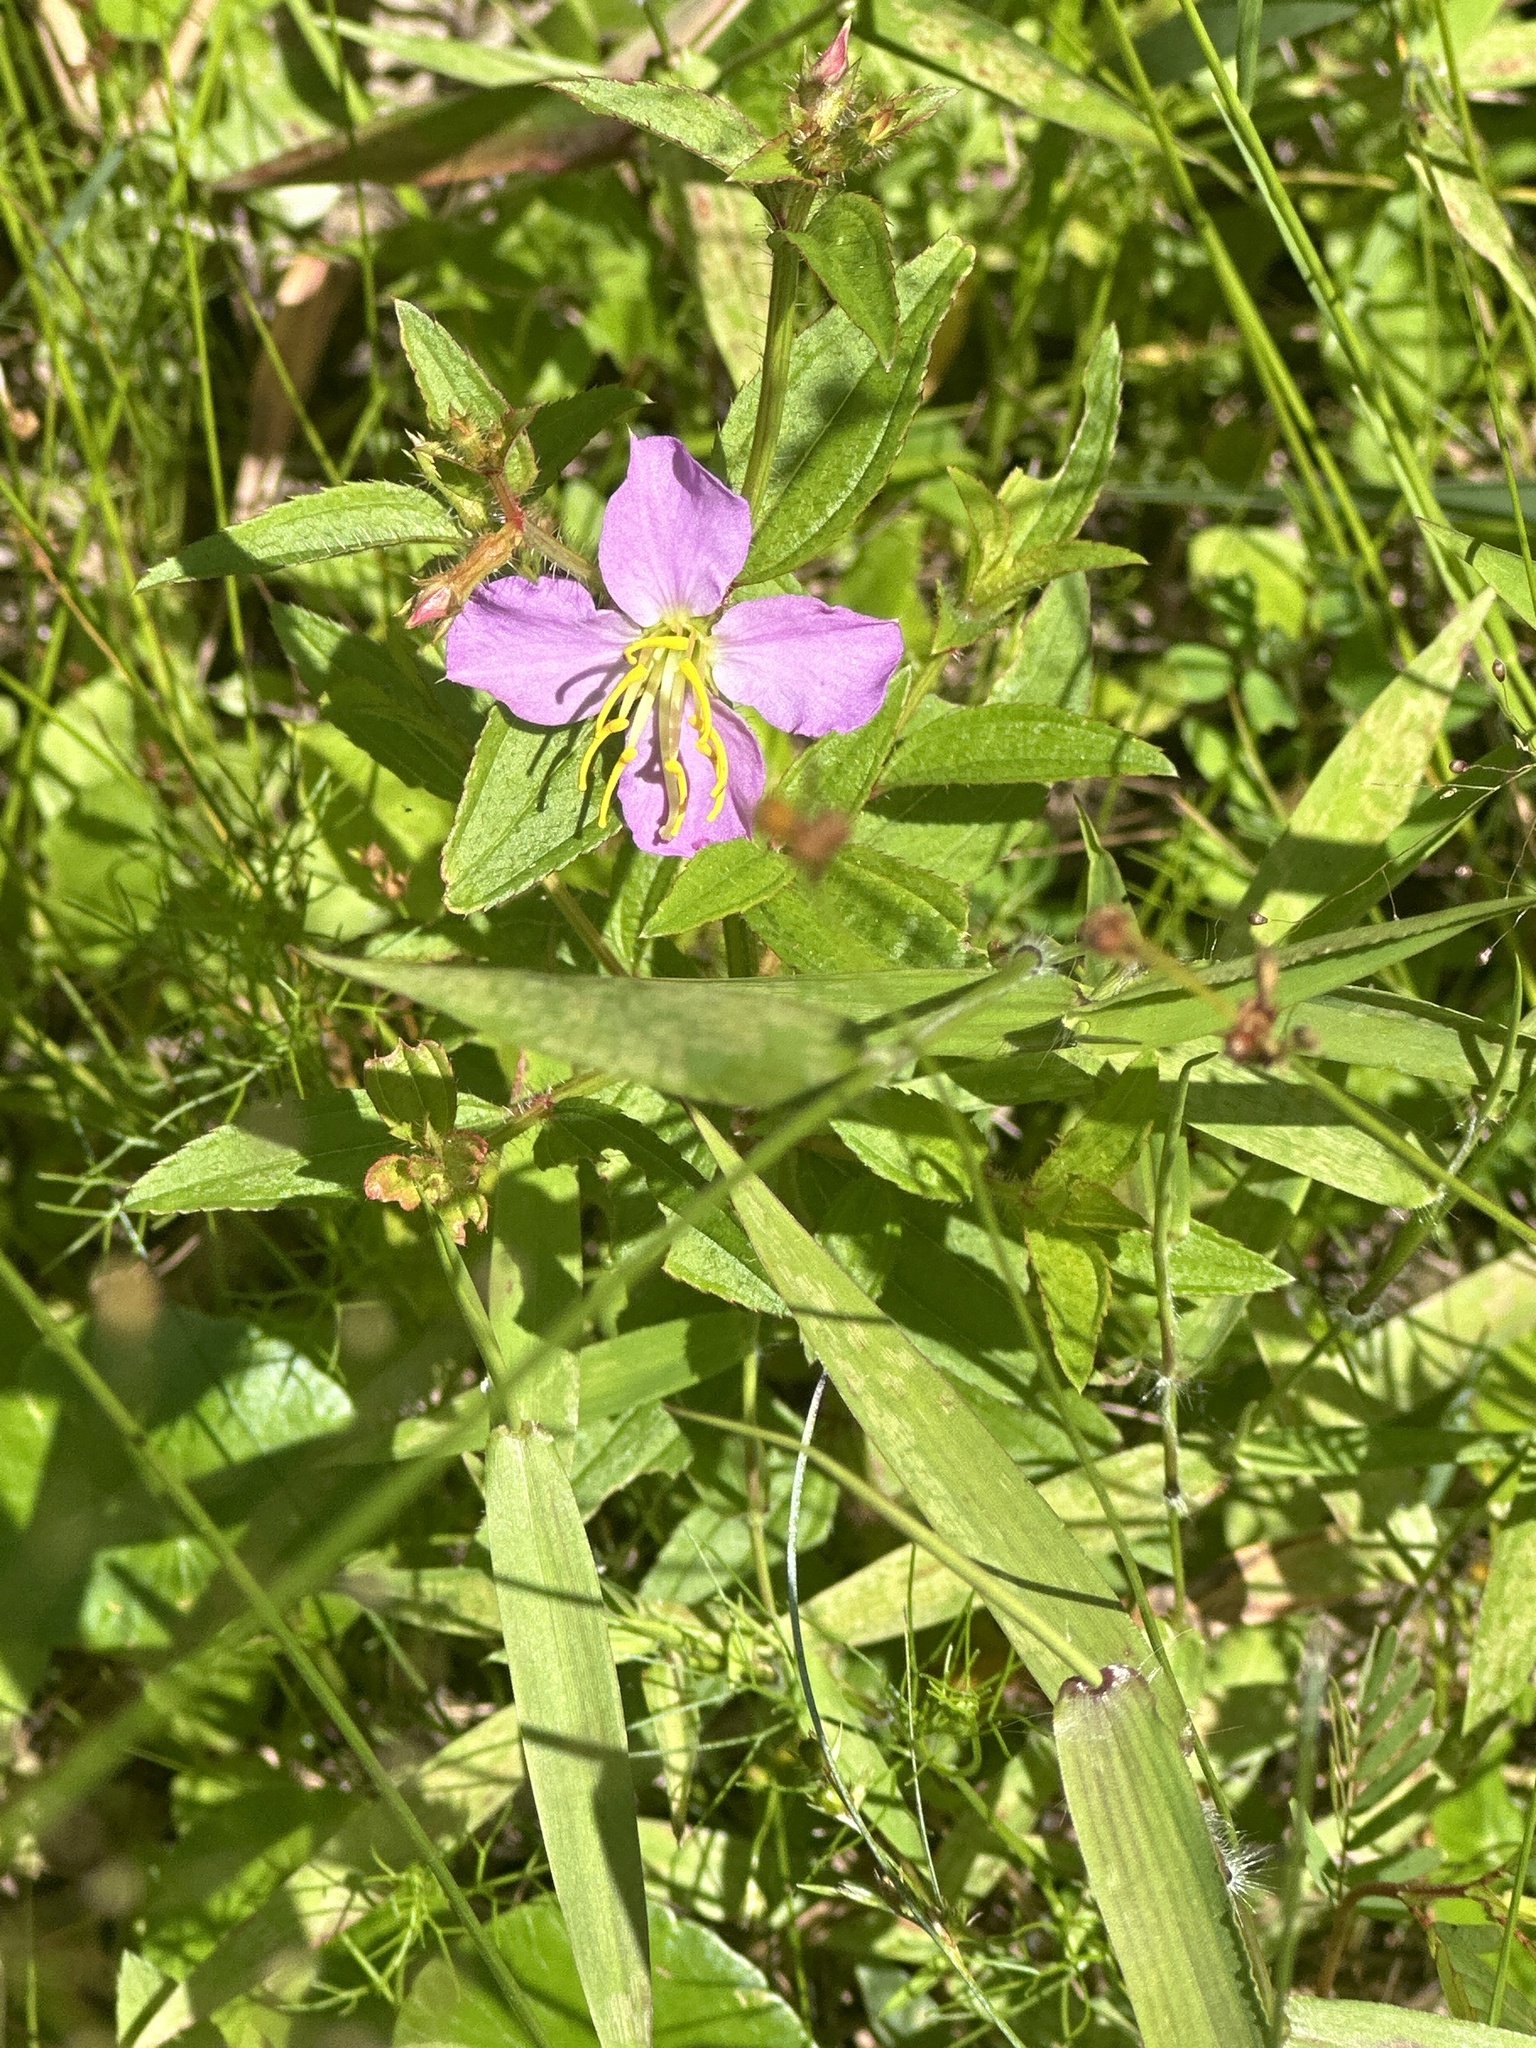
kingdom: Plantae
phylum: Tracheophyta
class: Magnoliopsida
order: Myrtales
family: Melastomataceae
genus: Rhexia
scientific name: Rhexia mariana
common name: Dull meadow-pitcher
